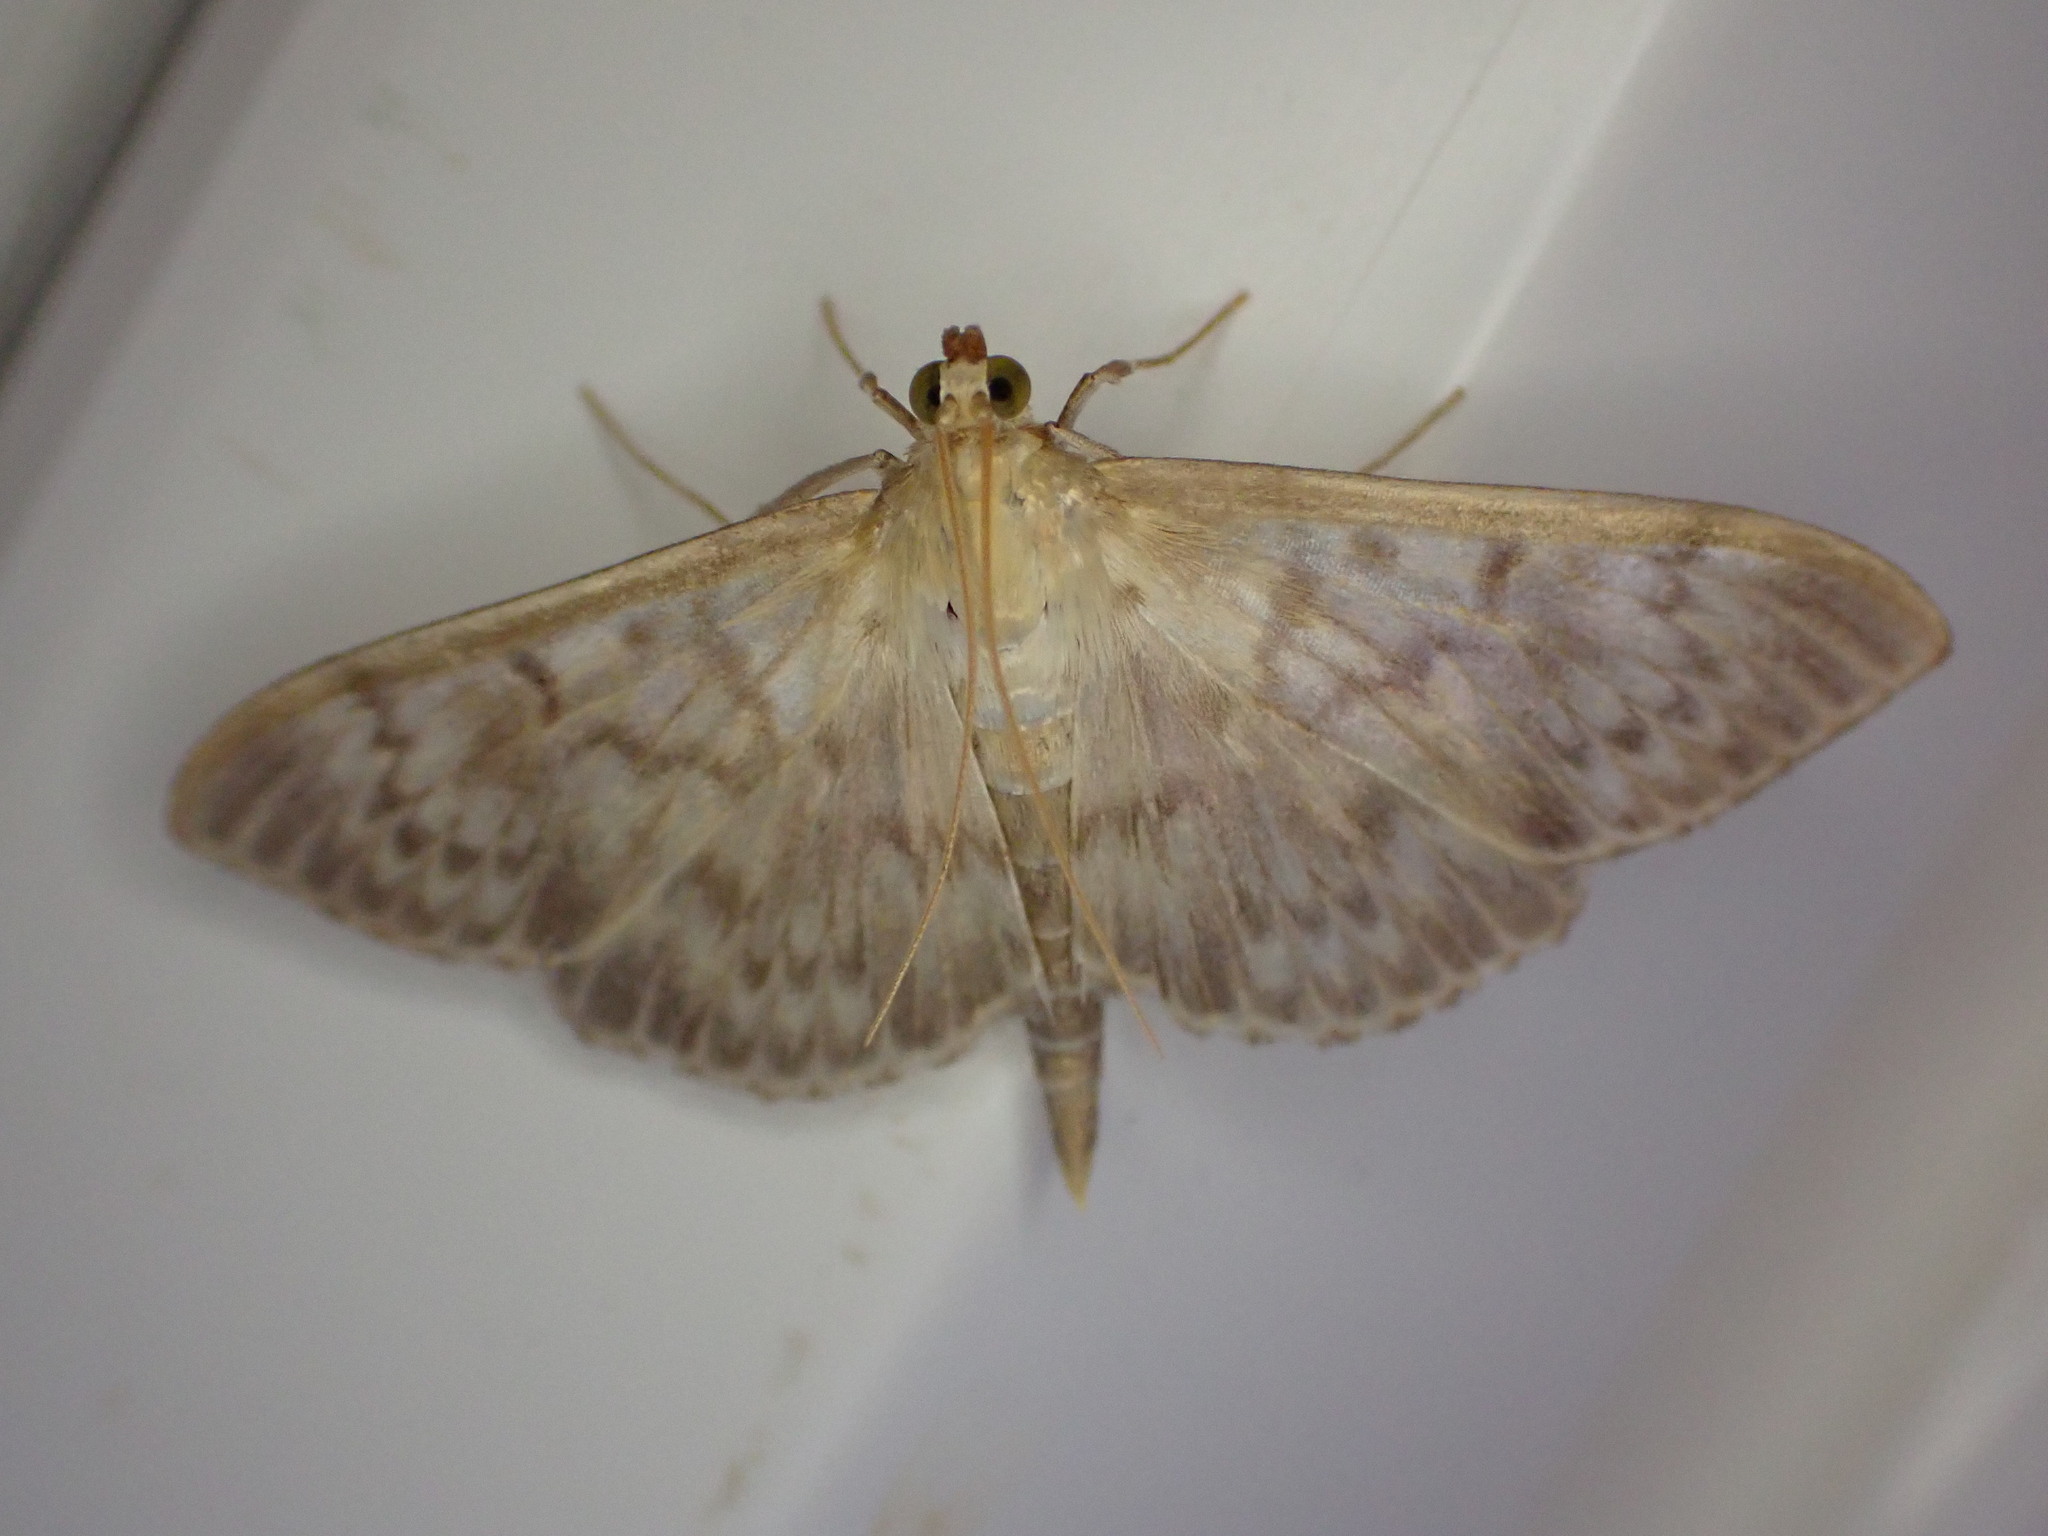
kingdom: Animalia
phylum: Arthropoda
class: Insecta
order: Lepidoptera
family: Crambidae
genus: Patania
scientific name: Patania ruralis
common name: Mother of pearl
